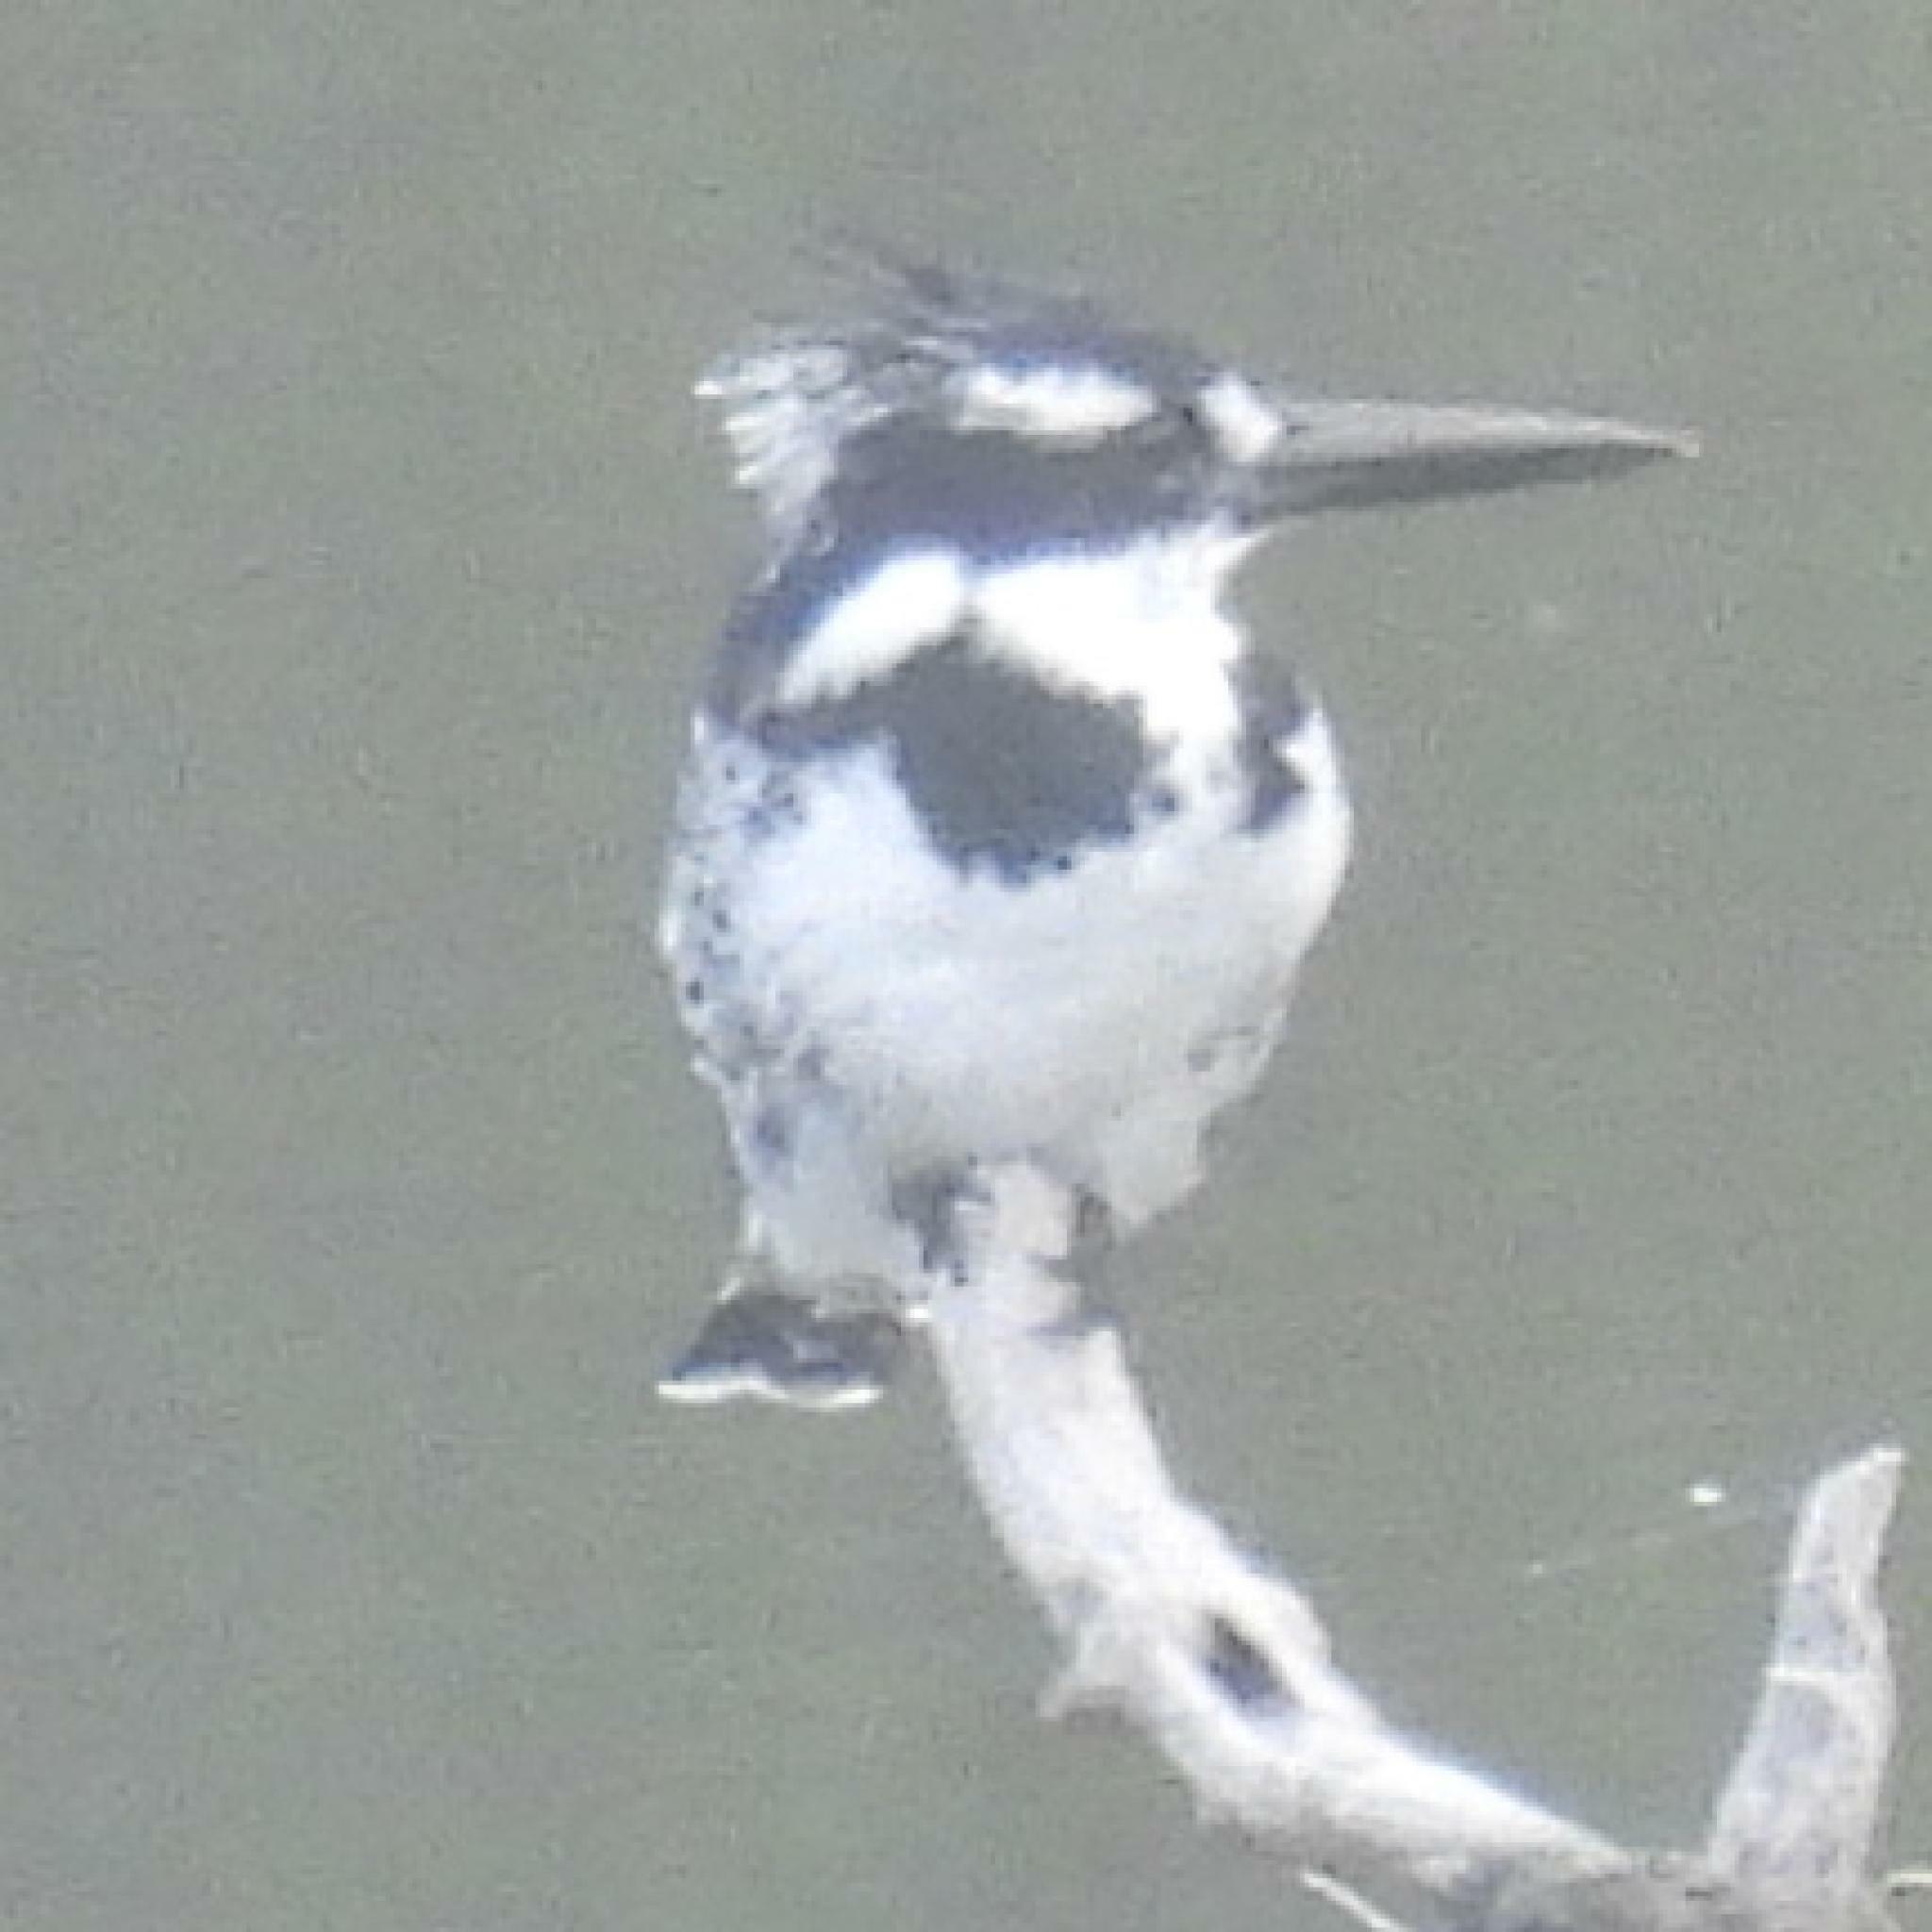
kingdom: Animalia
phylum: Chordata
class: Aves
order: Coraciiformes
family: Alcedinidae
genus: Ceryle
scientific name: Ceryle rudis
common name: Pied kingfisher
